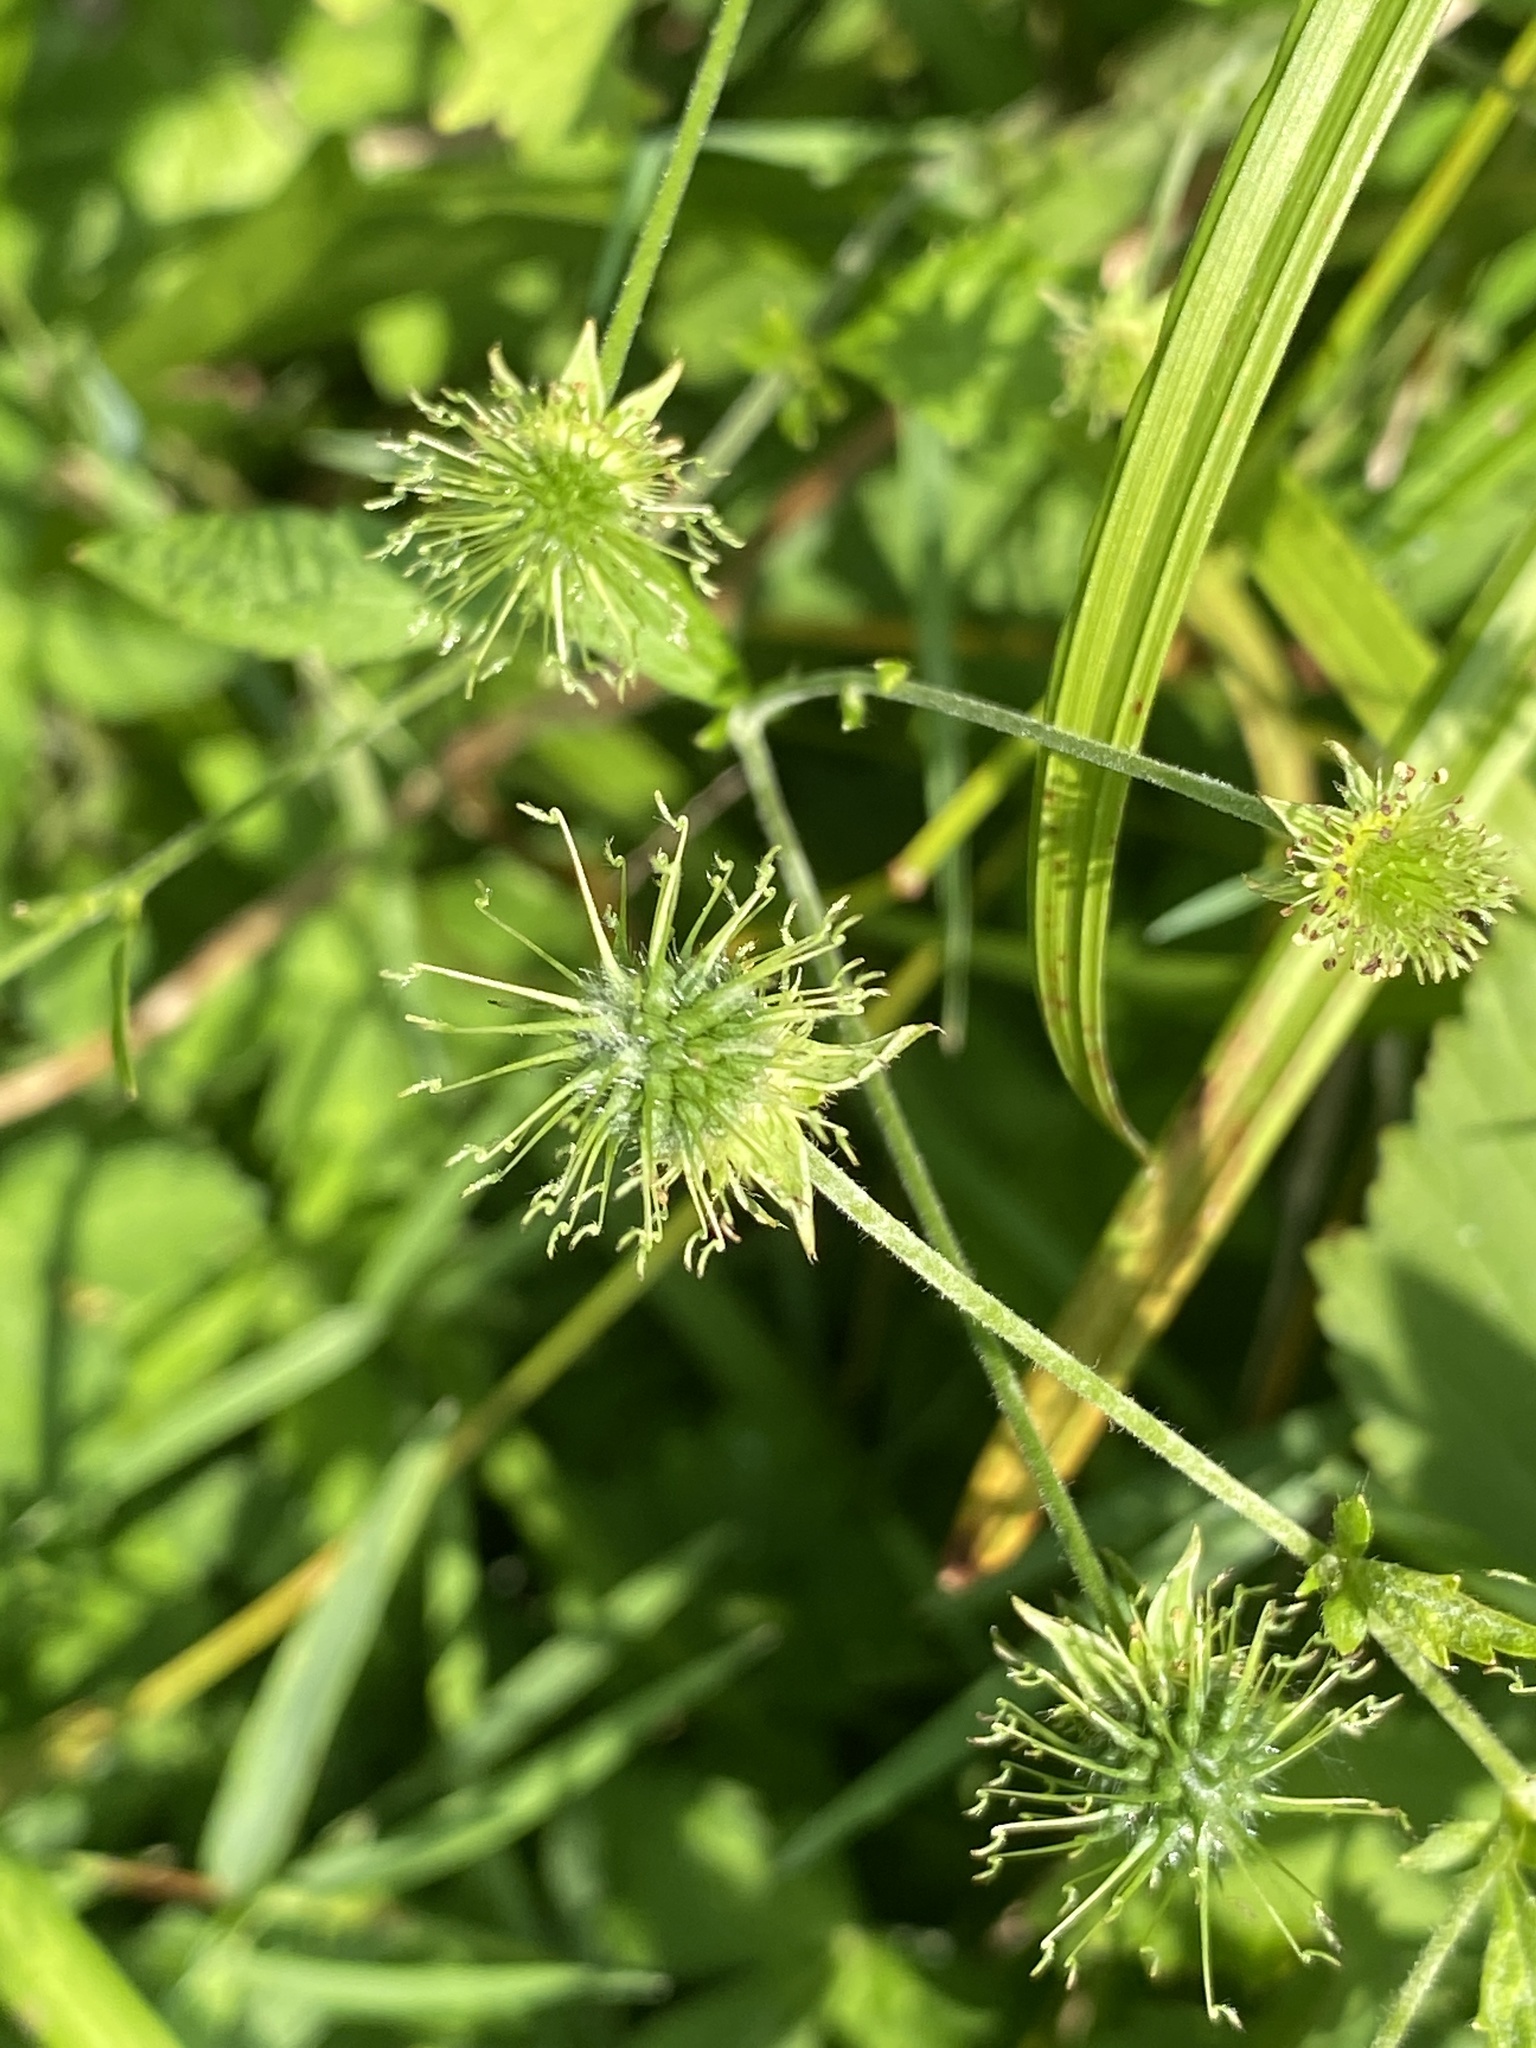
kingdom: Plantae
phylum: Tracheophyta
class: Magnoliopsida
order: Rosales
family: Rosaceae
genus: Geum
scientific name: Geum canadense
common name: White avens
